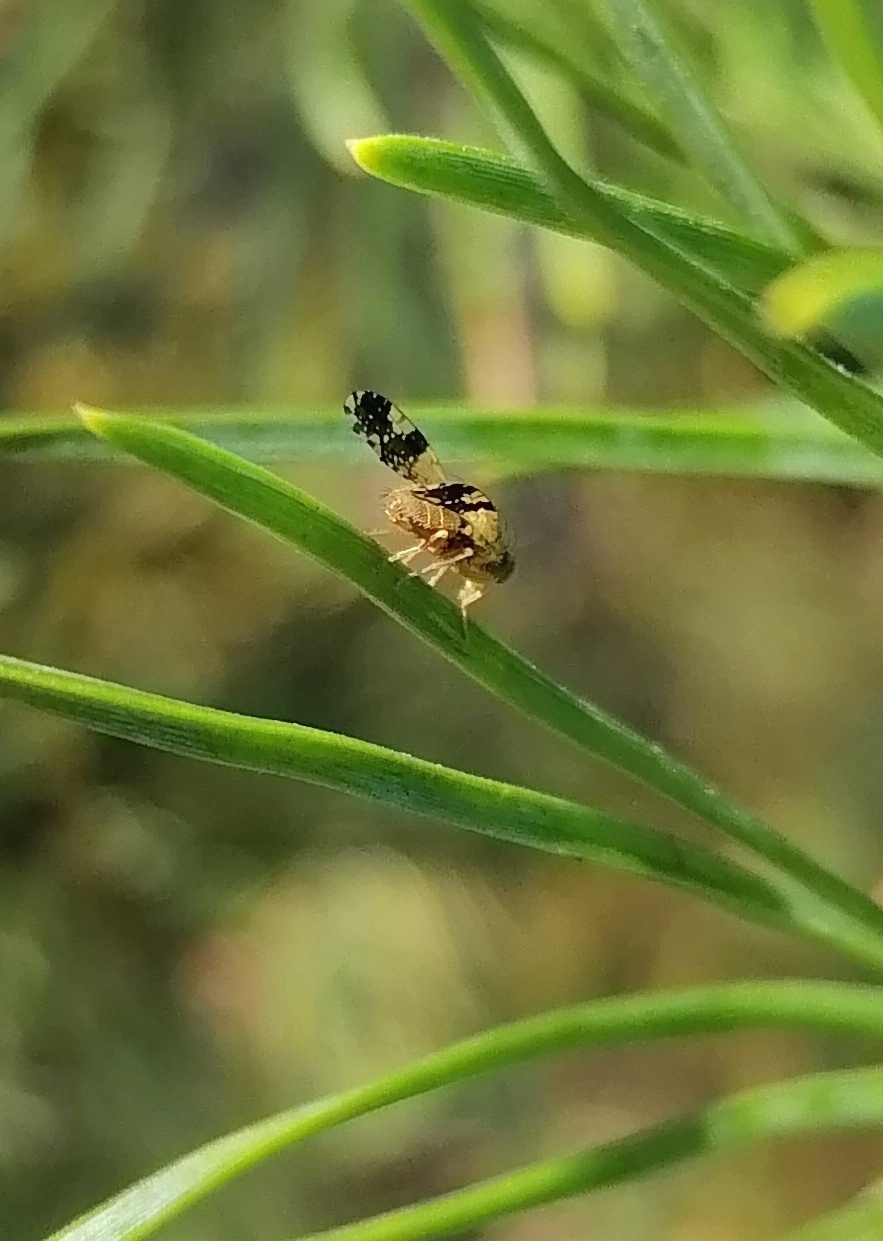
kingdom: Animalia
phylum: Arthropoda
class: Insecta
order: Diptera
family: Tephritidae
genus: Tephritis
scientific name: Tephritis bardanae
